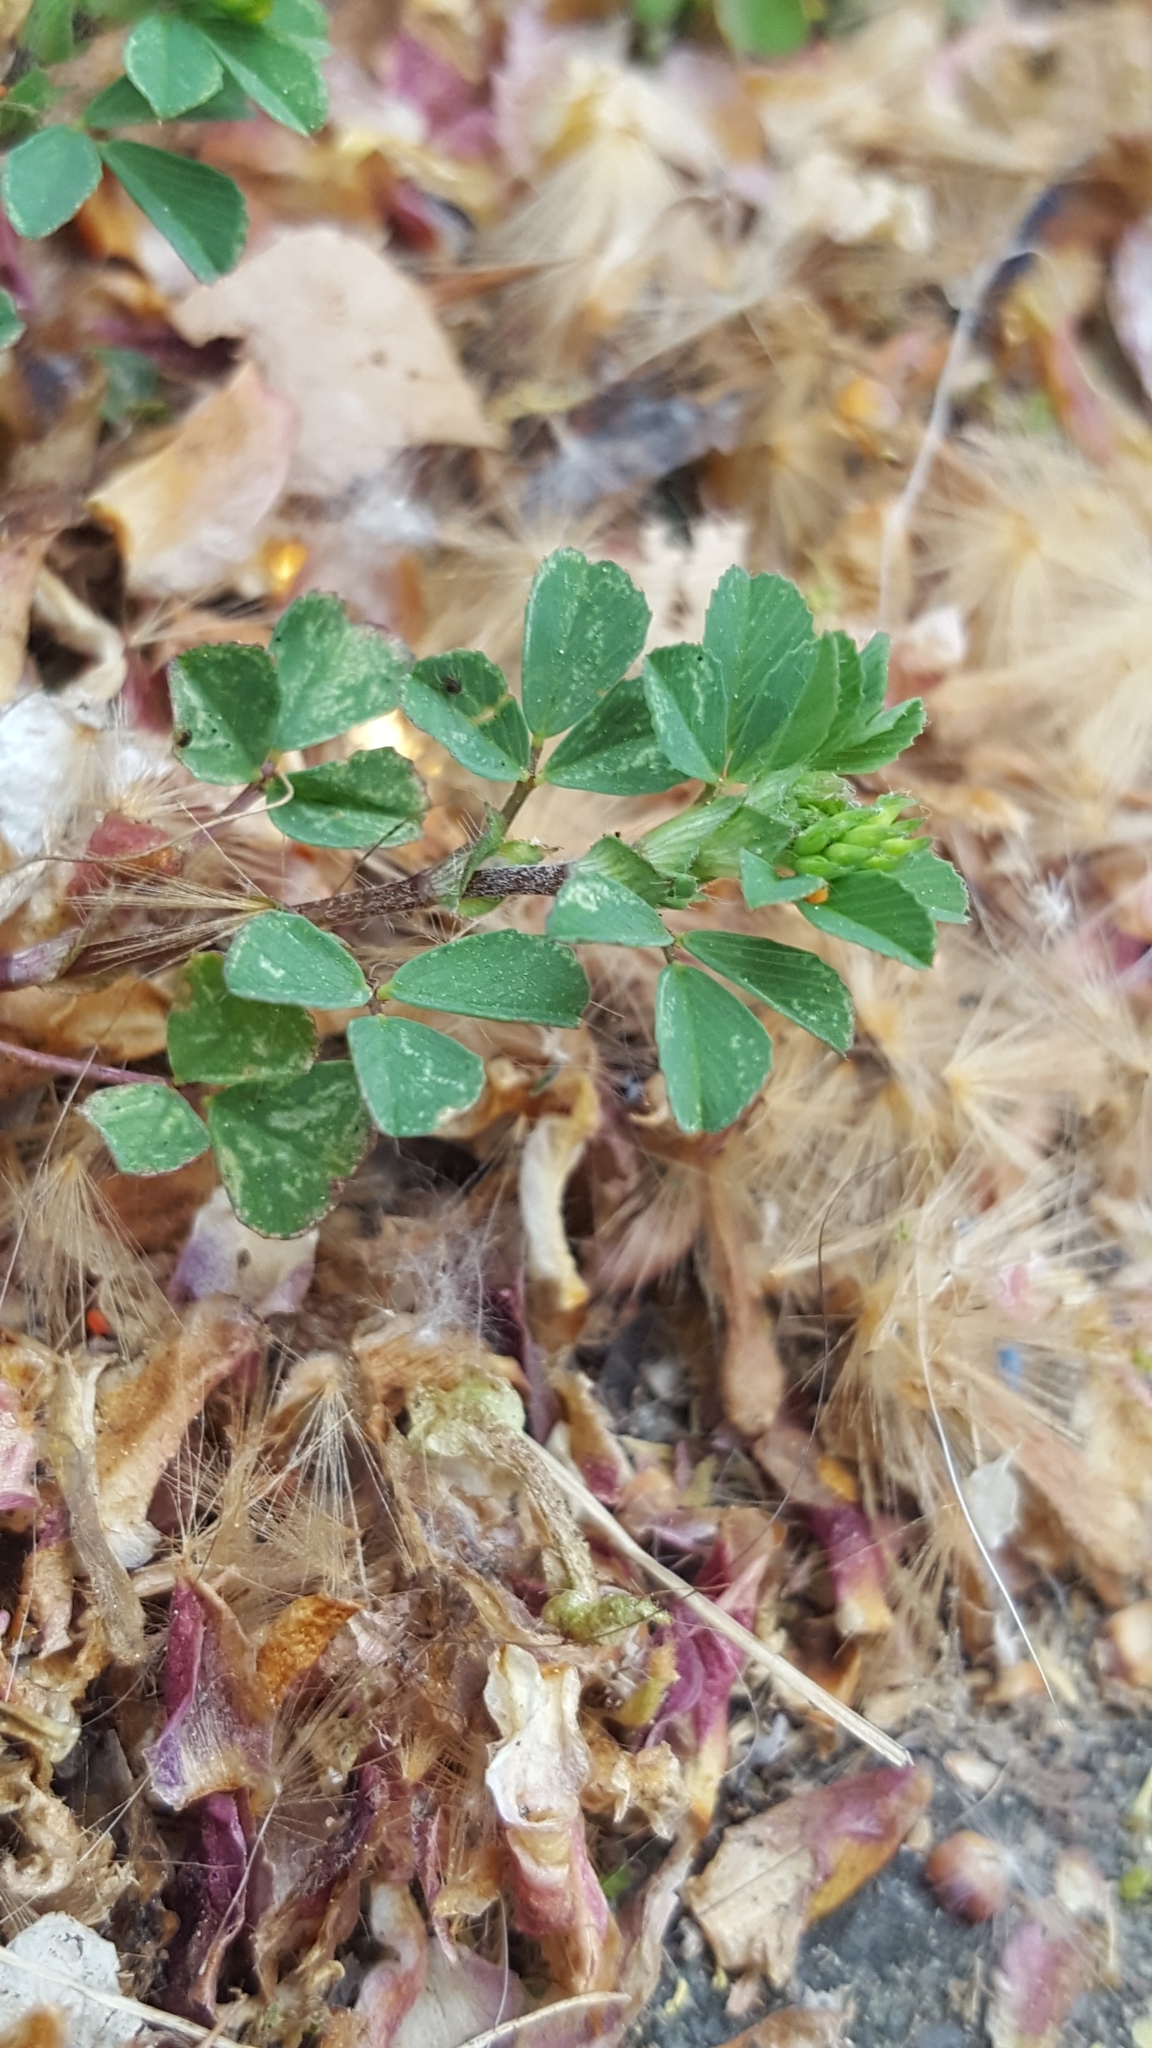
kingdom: Plantae
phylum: Tracheophyta
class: Magnoliopsida
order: Fabales
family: Fabaceae
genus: Medicago
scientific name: Medicago lupulina
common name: Black medick
